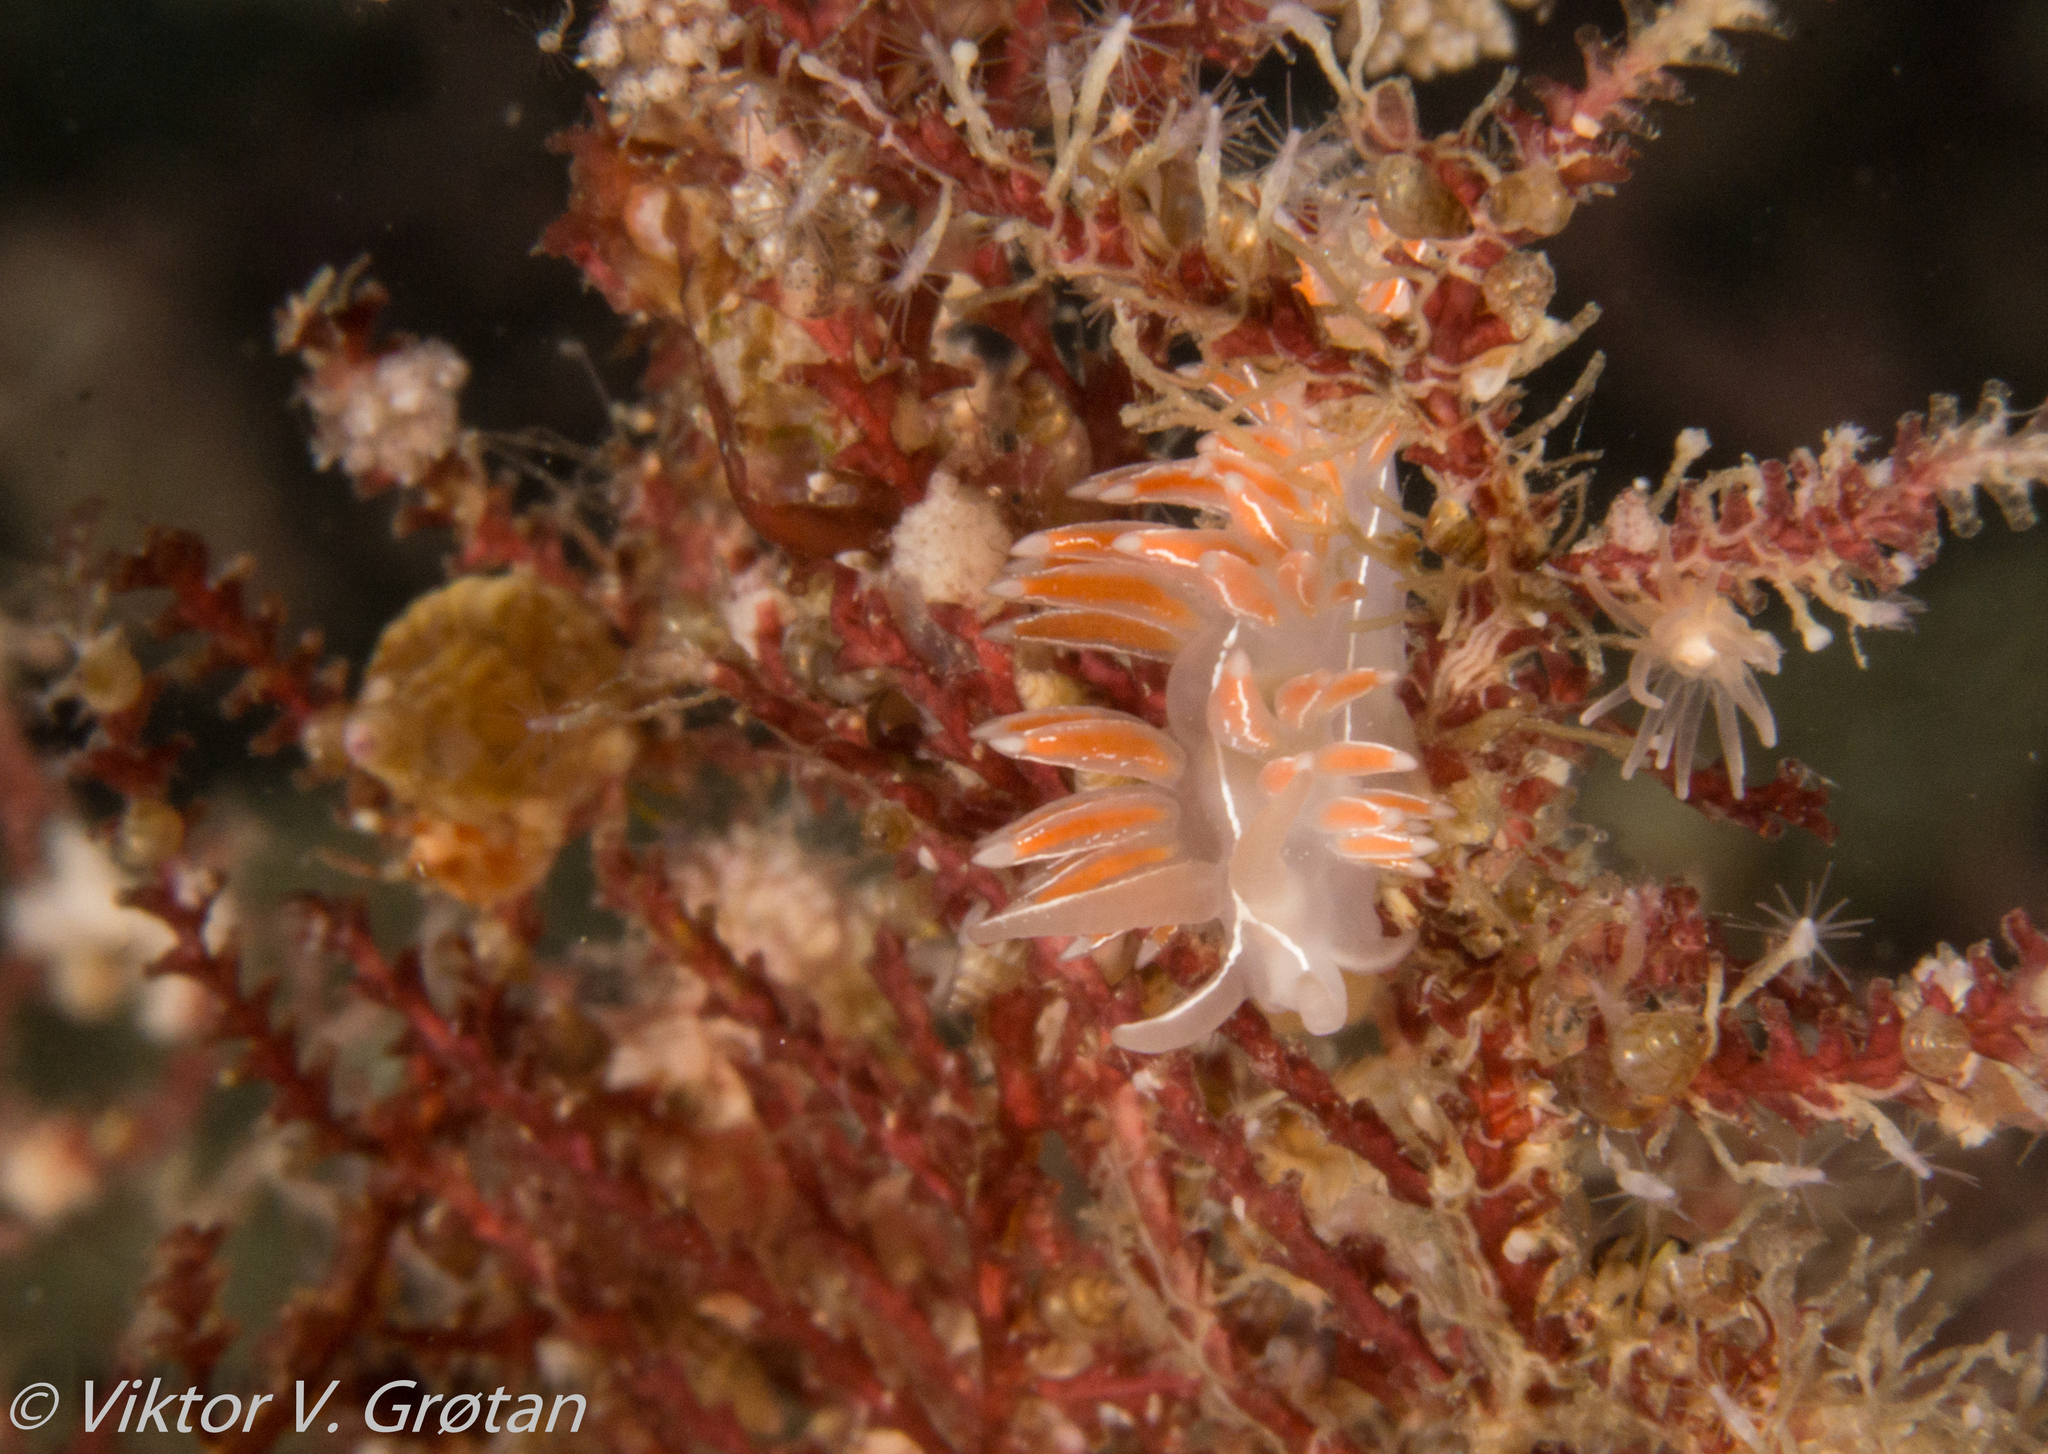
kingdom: Animalia
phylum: Mollusca
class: Gastropoda
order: Nudibranchia
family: Coryphellidae
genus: Coryphella
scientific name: Coryphella chriskaugei
